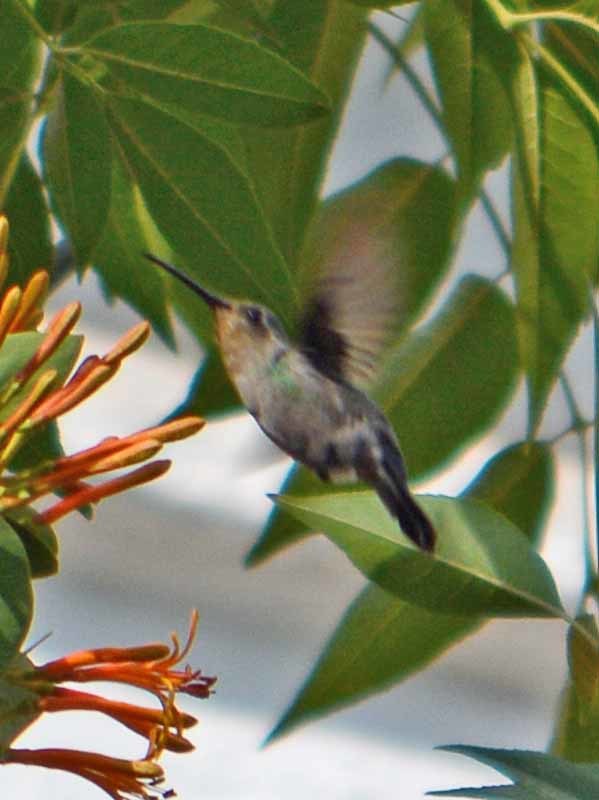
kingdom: Animalia
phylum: Chordata
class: Aves
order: Apodiformes
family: Trochilidae
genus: Cynanthus
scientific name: Cynanthus latirostris
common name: Broad-billed hummingbird
